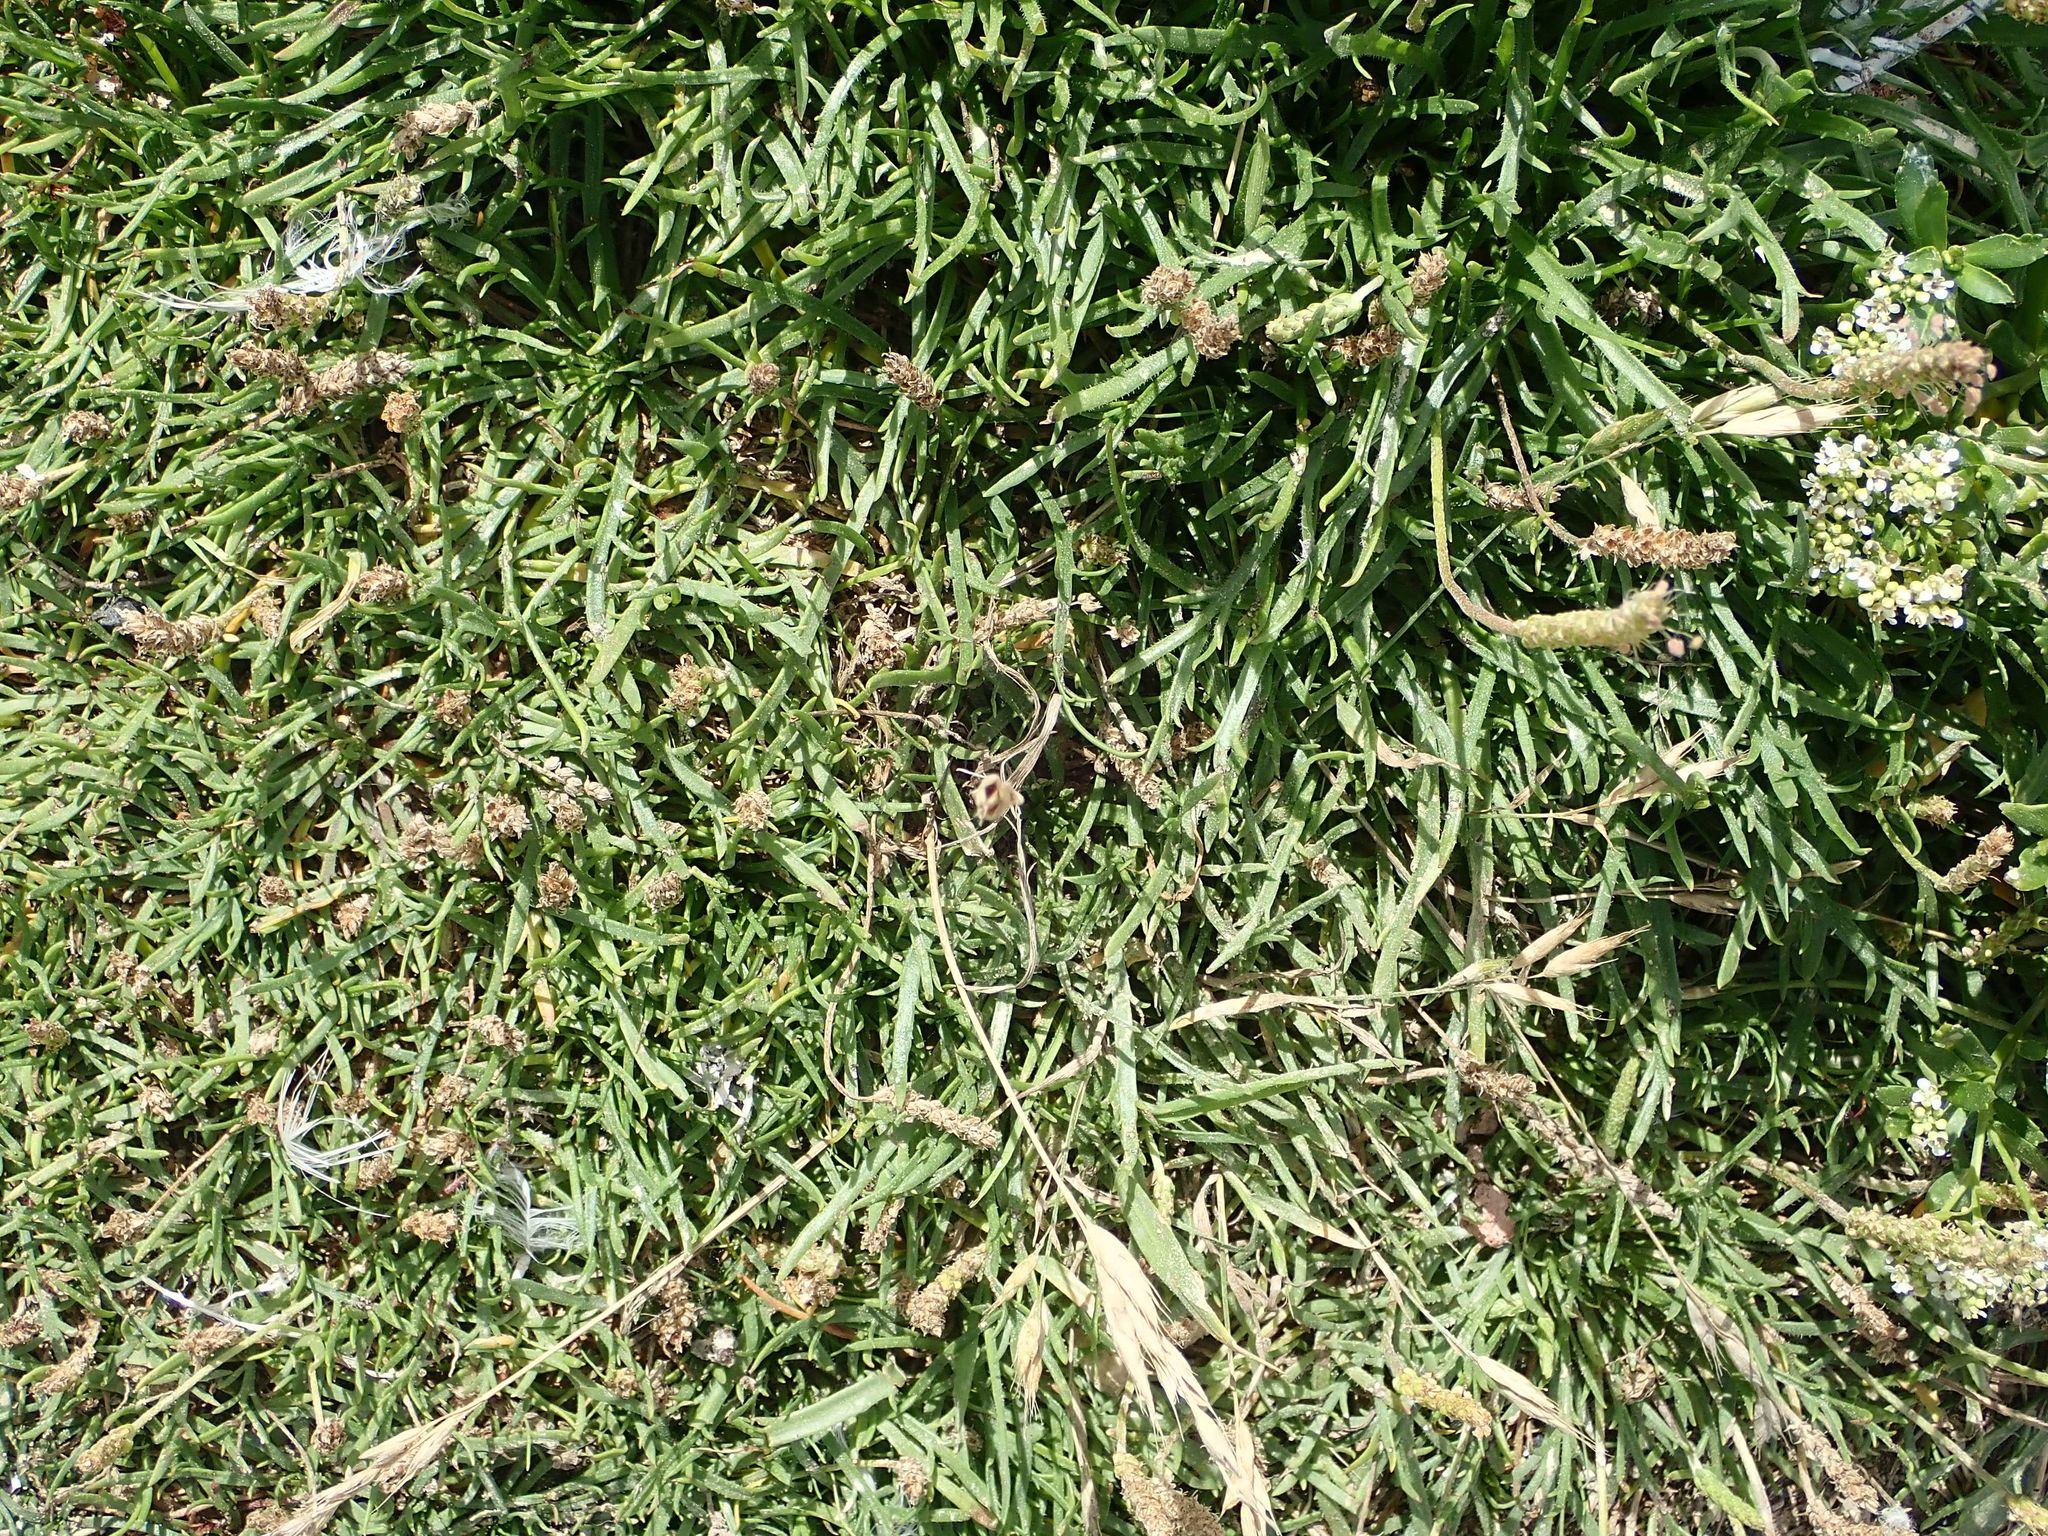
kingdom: Plantae
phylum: Tracheophyta
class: Magnoliopsida
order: Lamiales
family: Plantaginaceae
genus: Plantago
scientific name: Plantago coronopus
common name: Buck's-horn plantain
